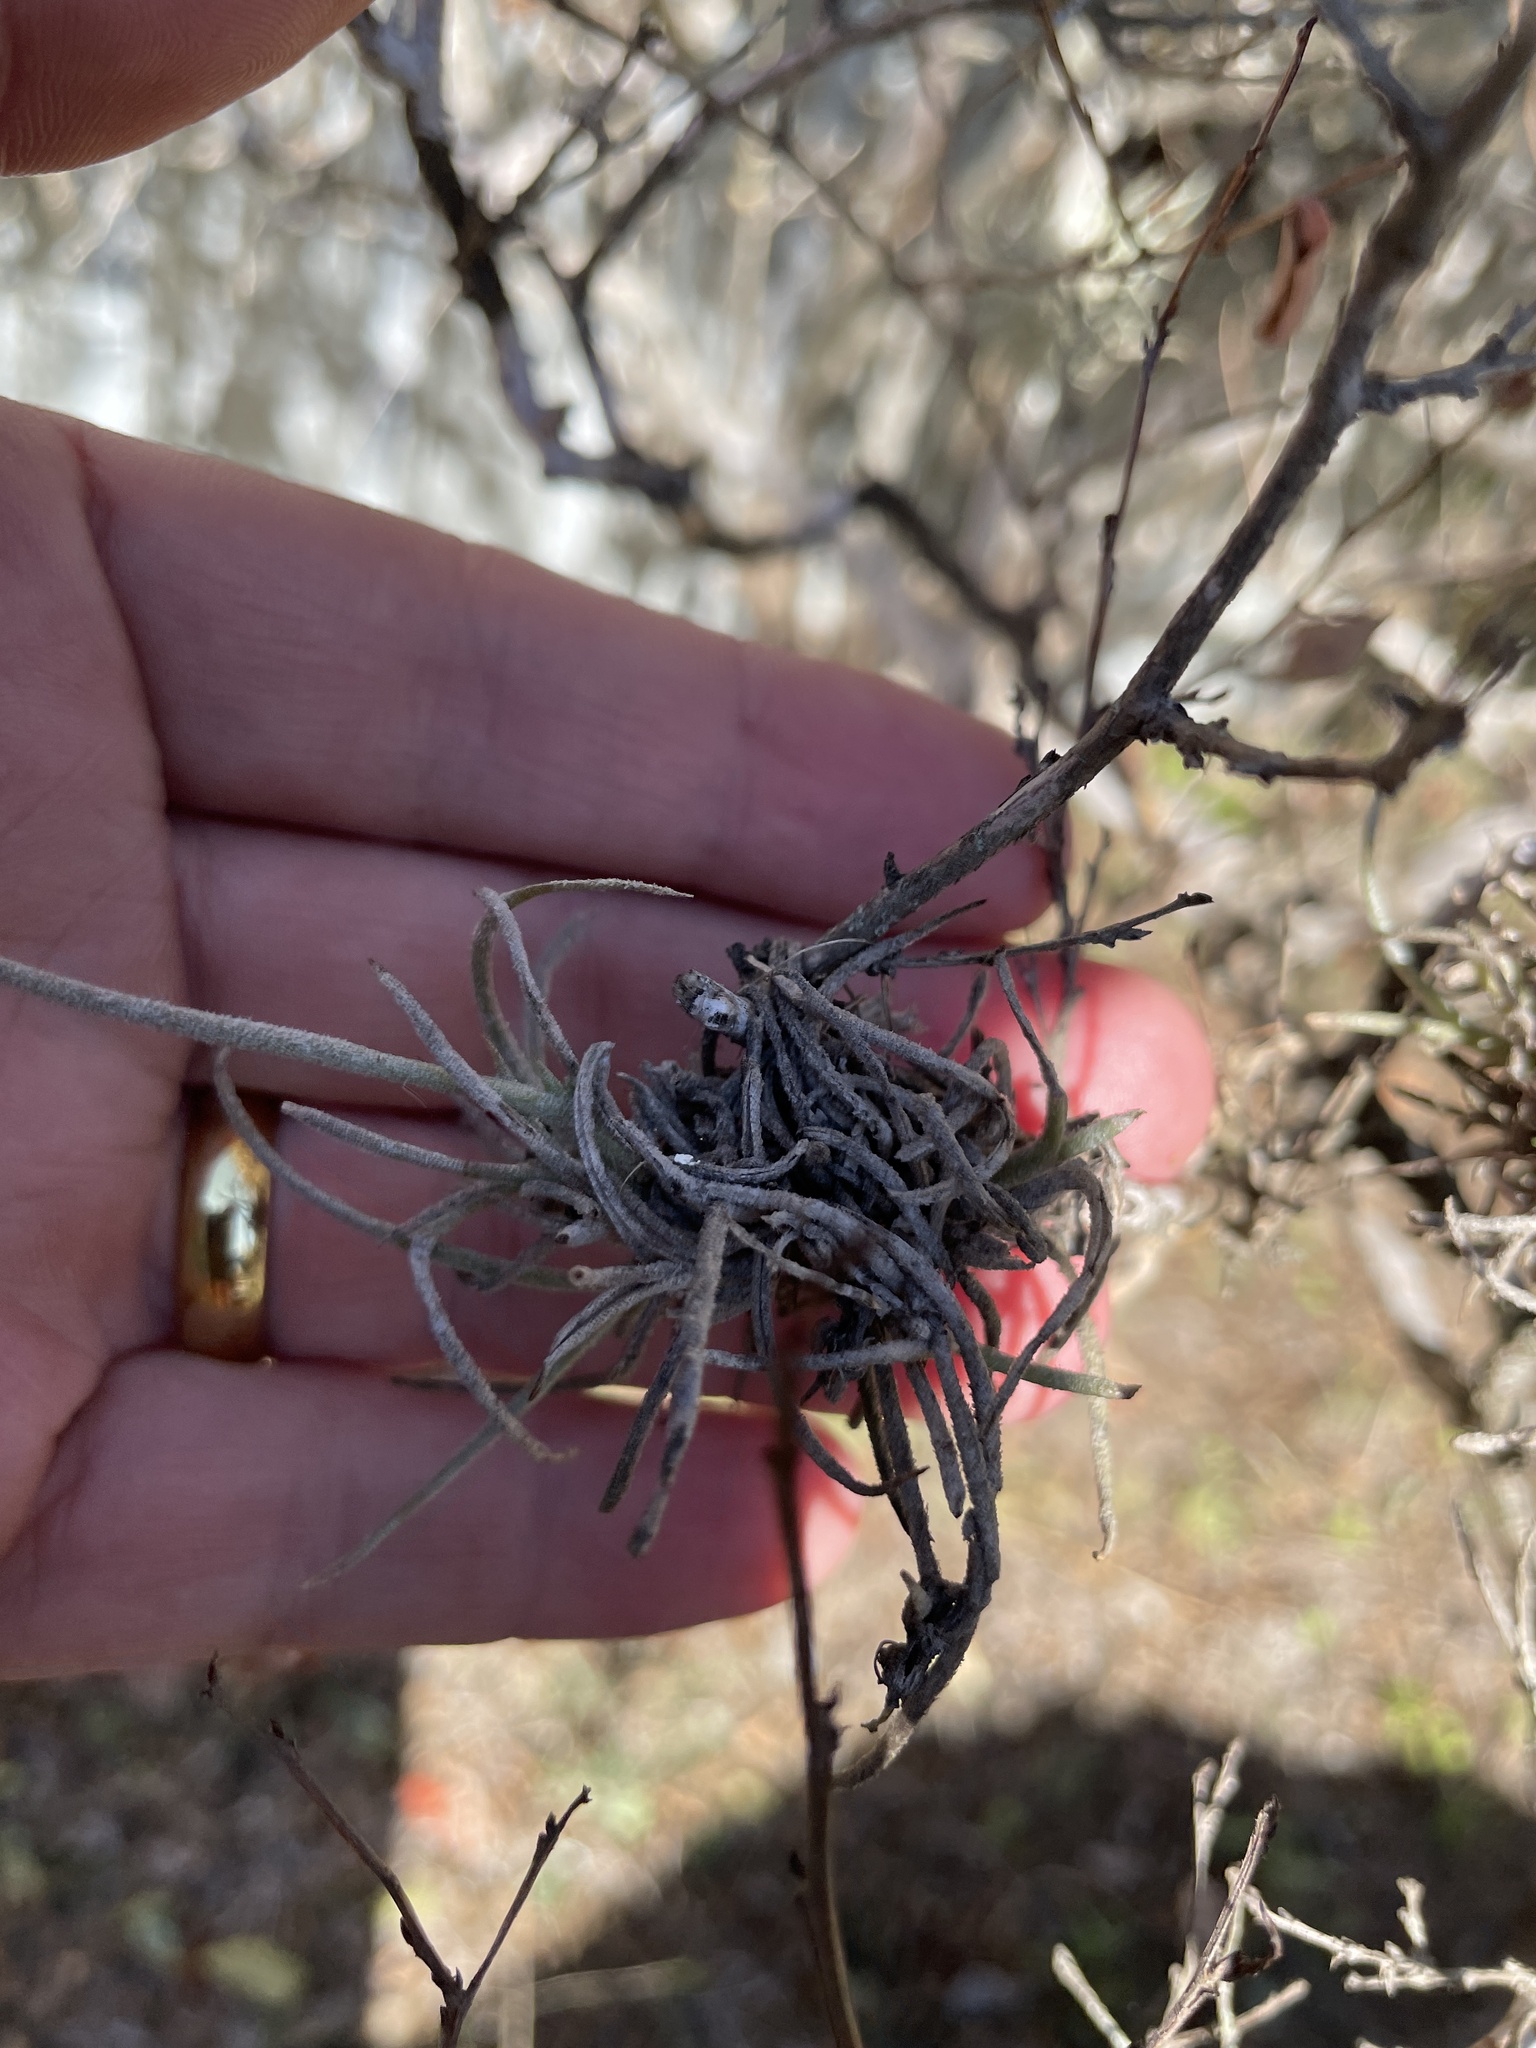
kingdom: Plantae
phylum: Tracheophyta
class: Liliopsida
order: Poales
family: Bromeliaceae
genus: Tillandsia
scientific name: Tillandsia recurvata
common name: Small ballmoss
